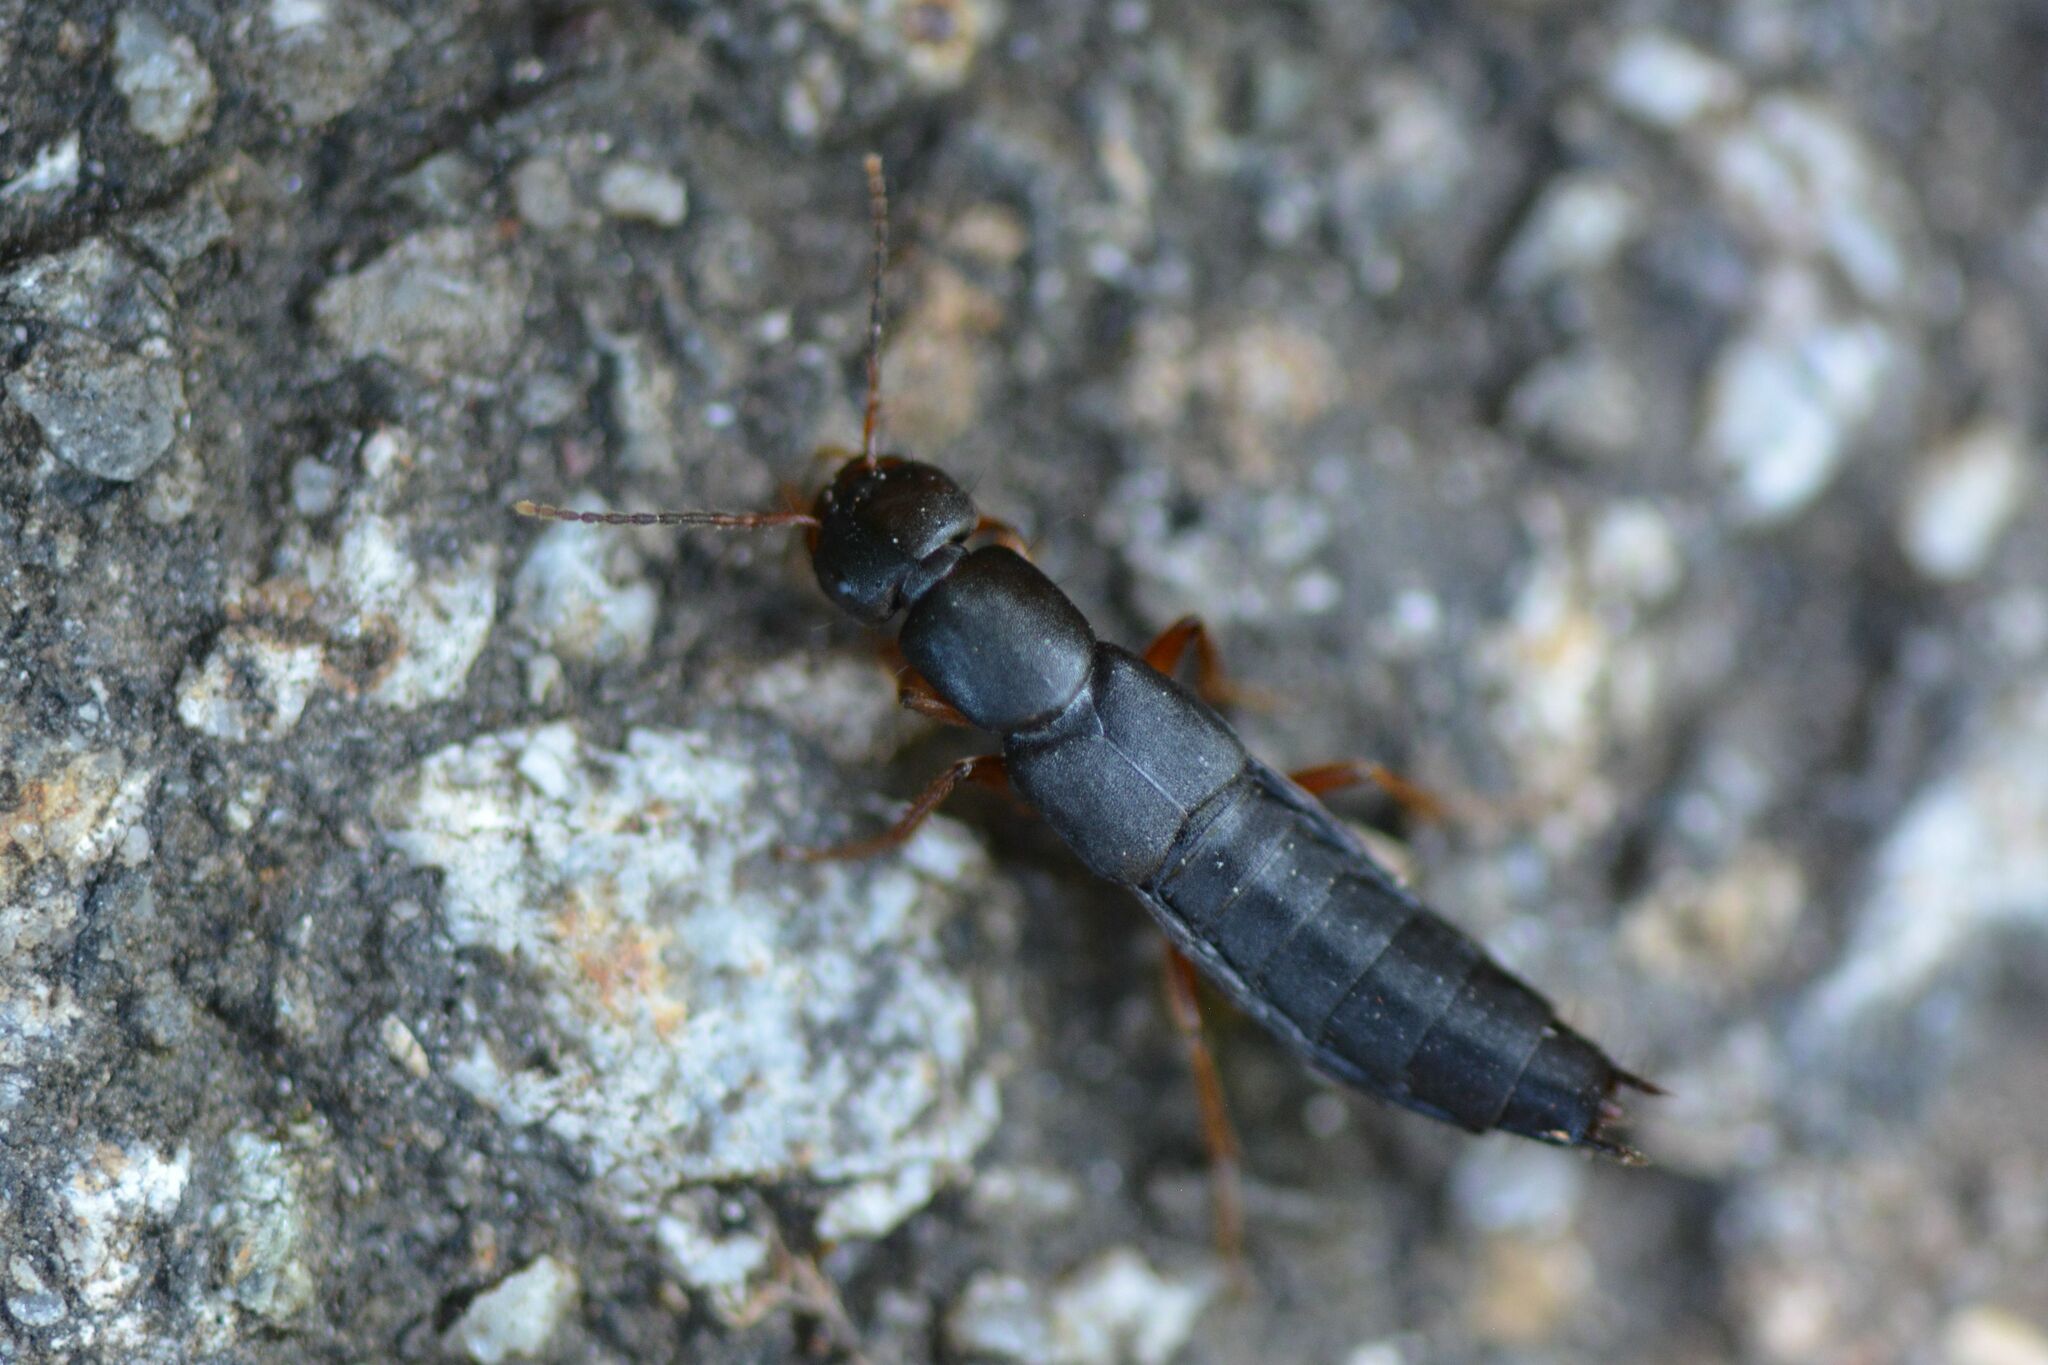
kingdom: Animalia
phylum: Arthropoda
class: Insecta
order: Coleoptera
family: Staphylinidae
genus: Tasgius
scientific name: Tasgius morsitans
